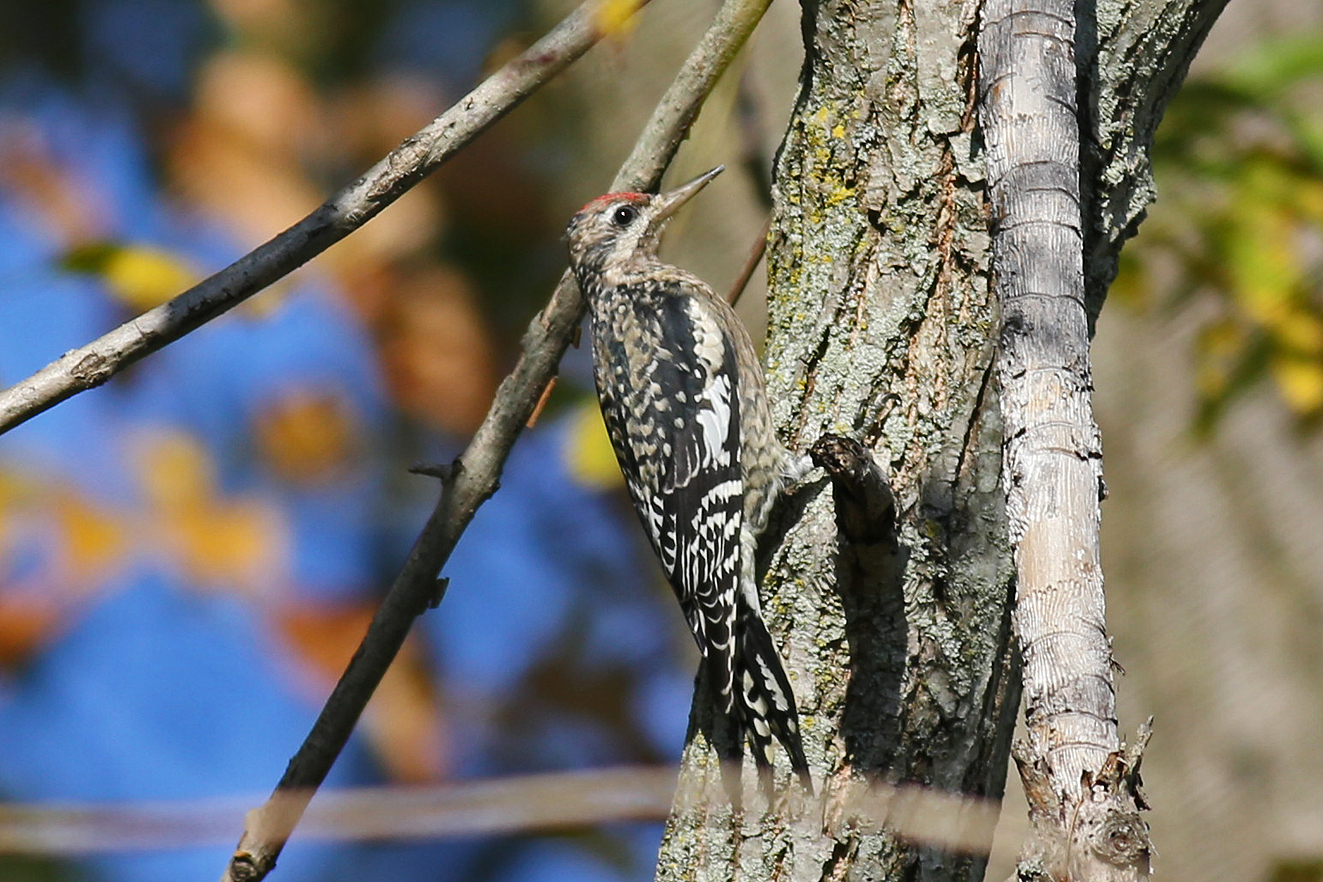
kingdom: Animalia
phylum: Chordata
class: Aves
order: Piciformes
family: Picidae
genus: Sphyrapicus
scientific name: Sphyrapicus varius
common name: Yellow-bellied sapsucker
